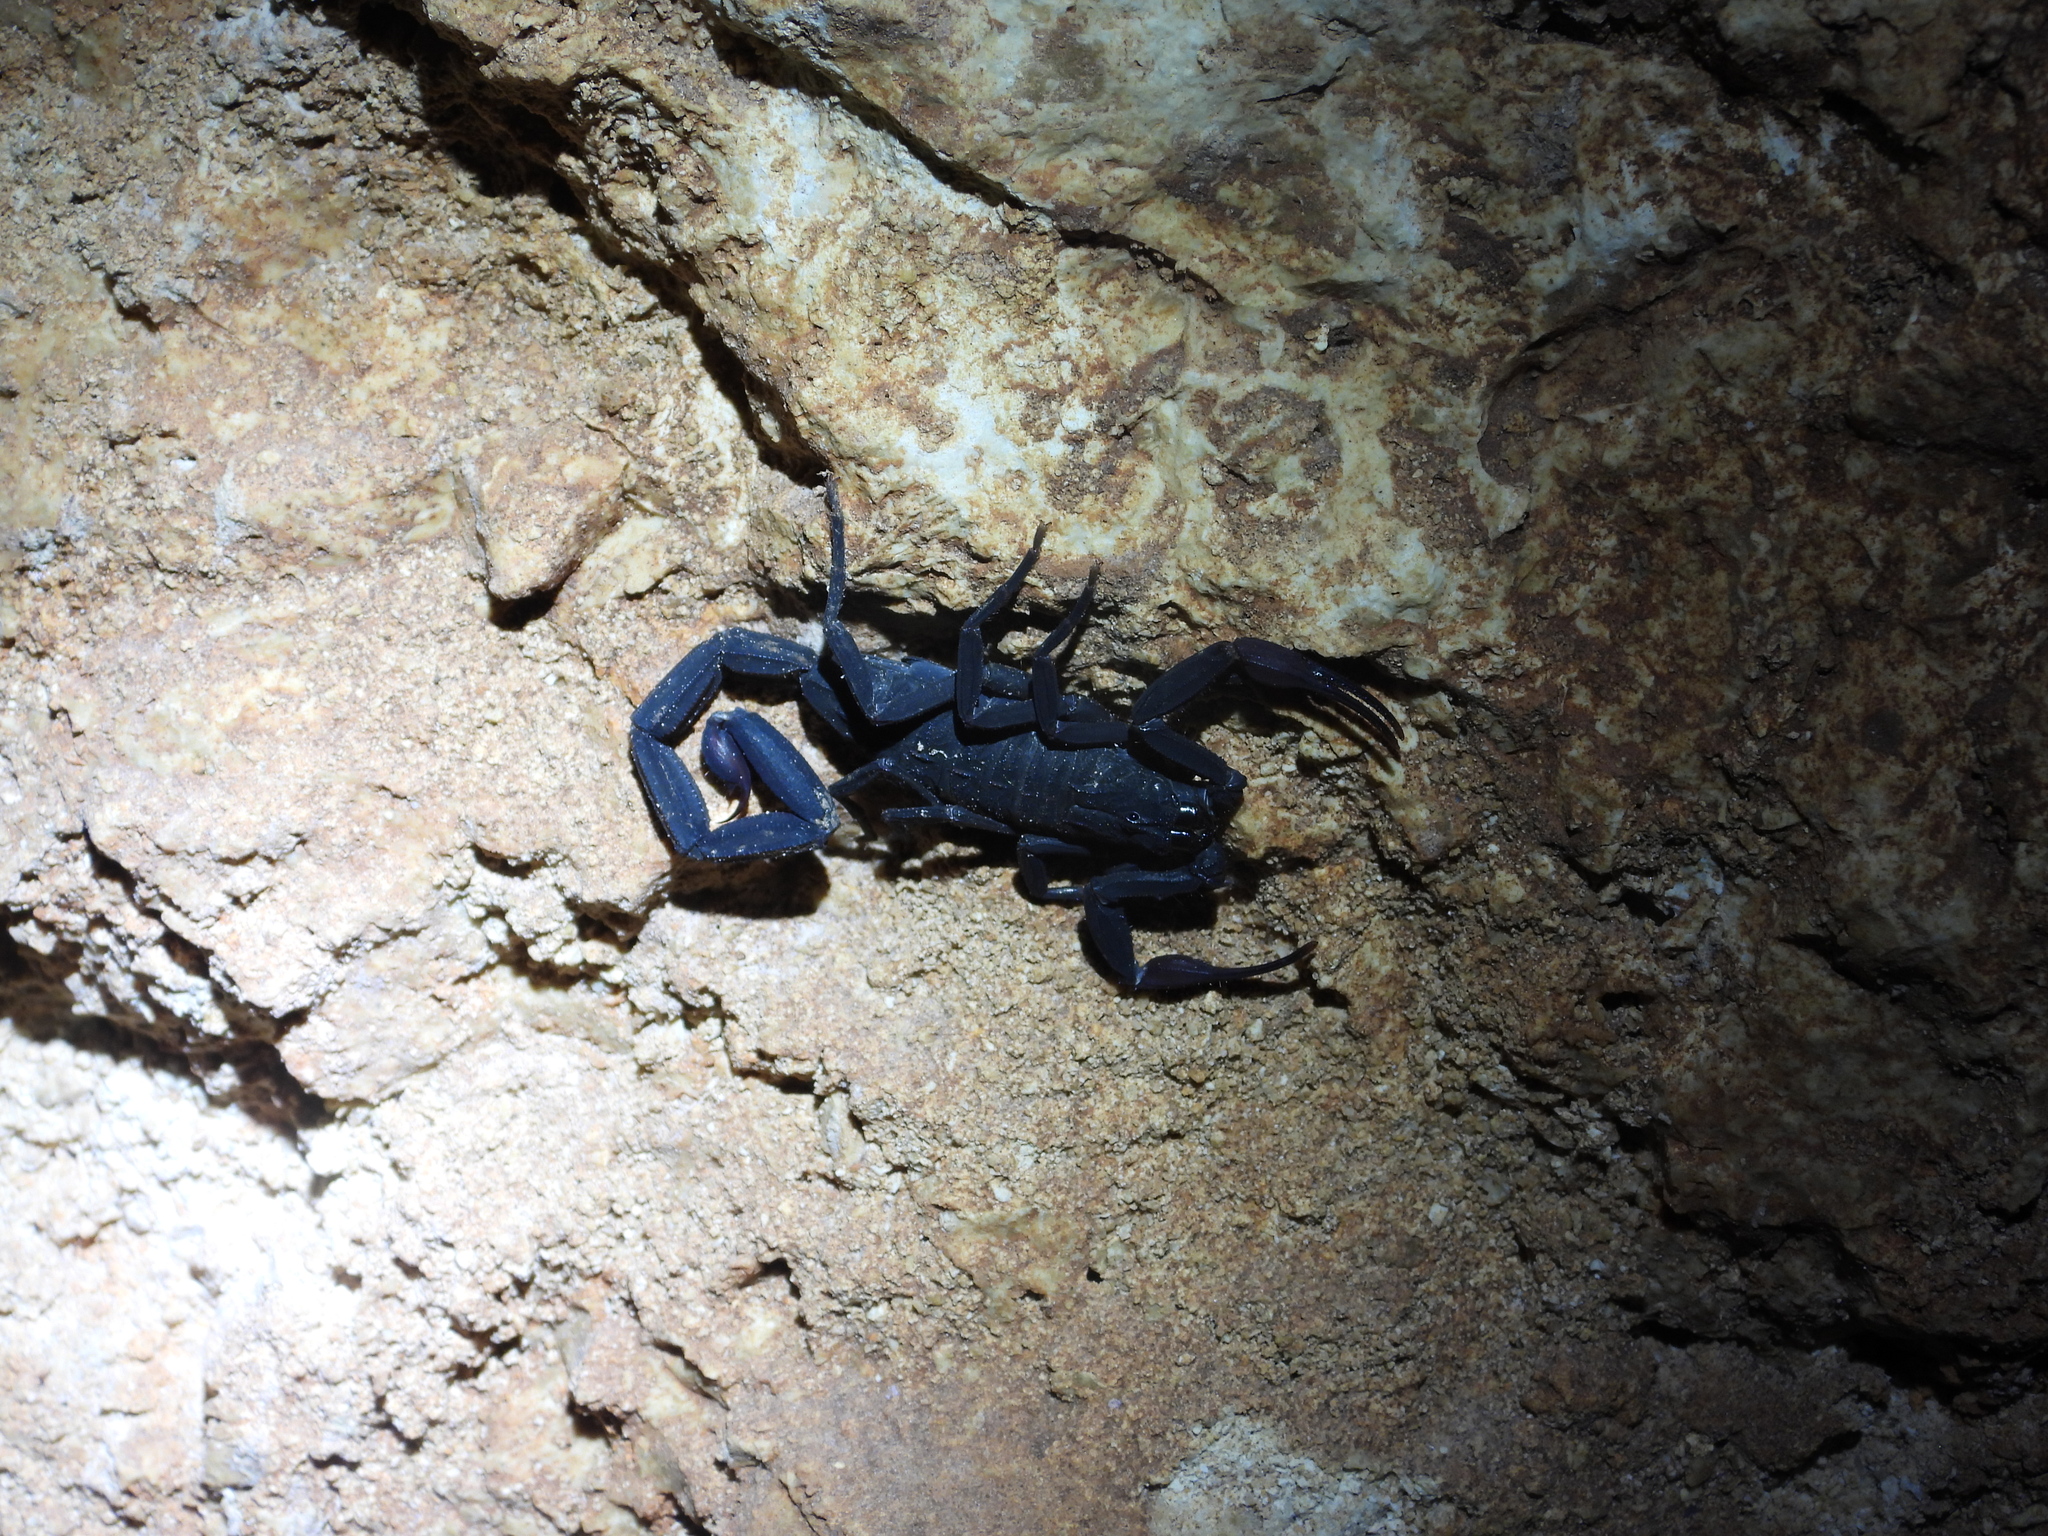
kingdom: Animalia
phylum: Arthropoda
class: Arachnida
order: Scorpiones
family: Buthidae
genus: Centruroides
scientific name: Centruroides gracilis
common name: Scorpions
